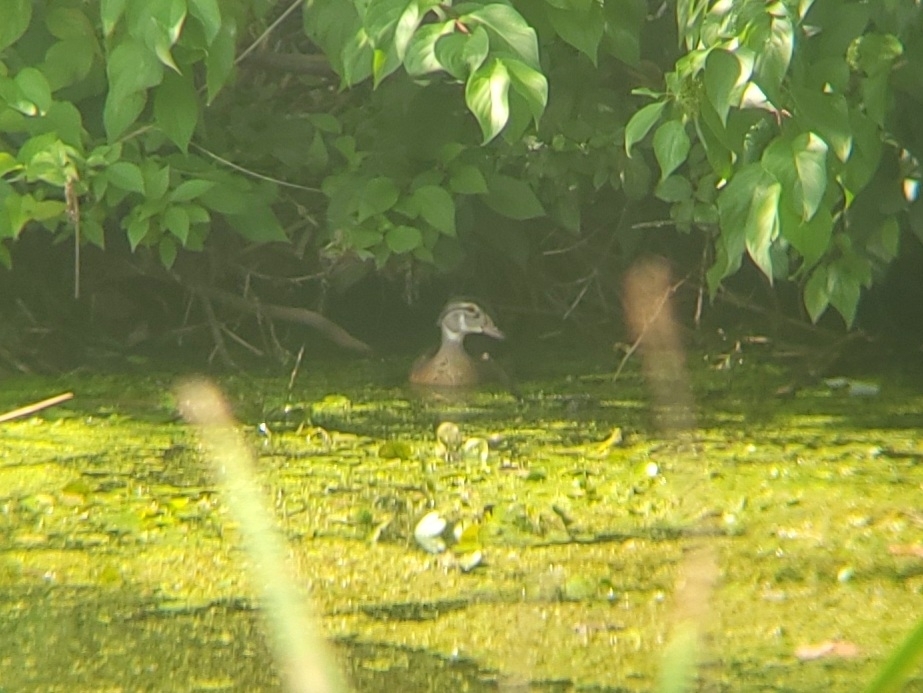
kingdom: Animalia
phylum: Chordata
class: Aves
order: Anseriformes
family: Anatidae
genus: Aix
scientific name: Aix sponsa
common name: Wood duck
